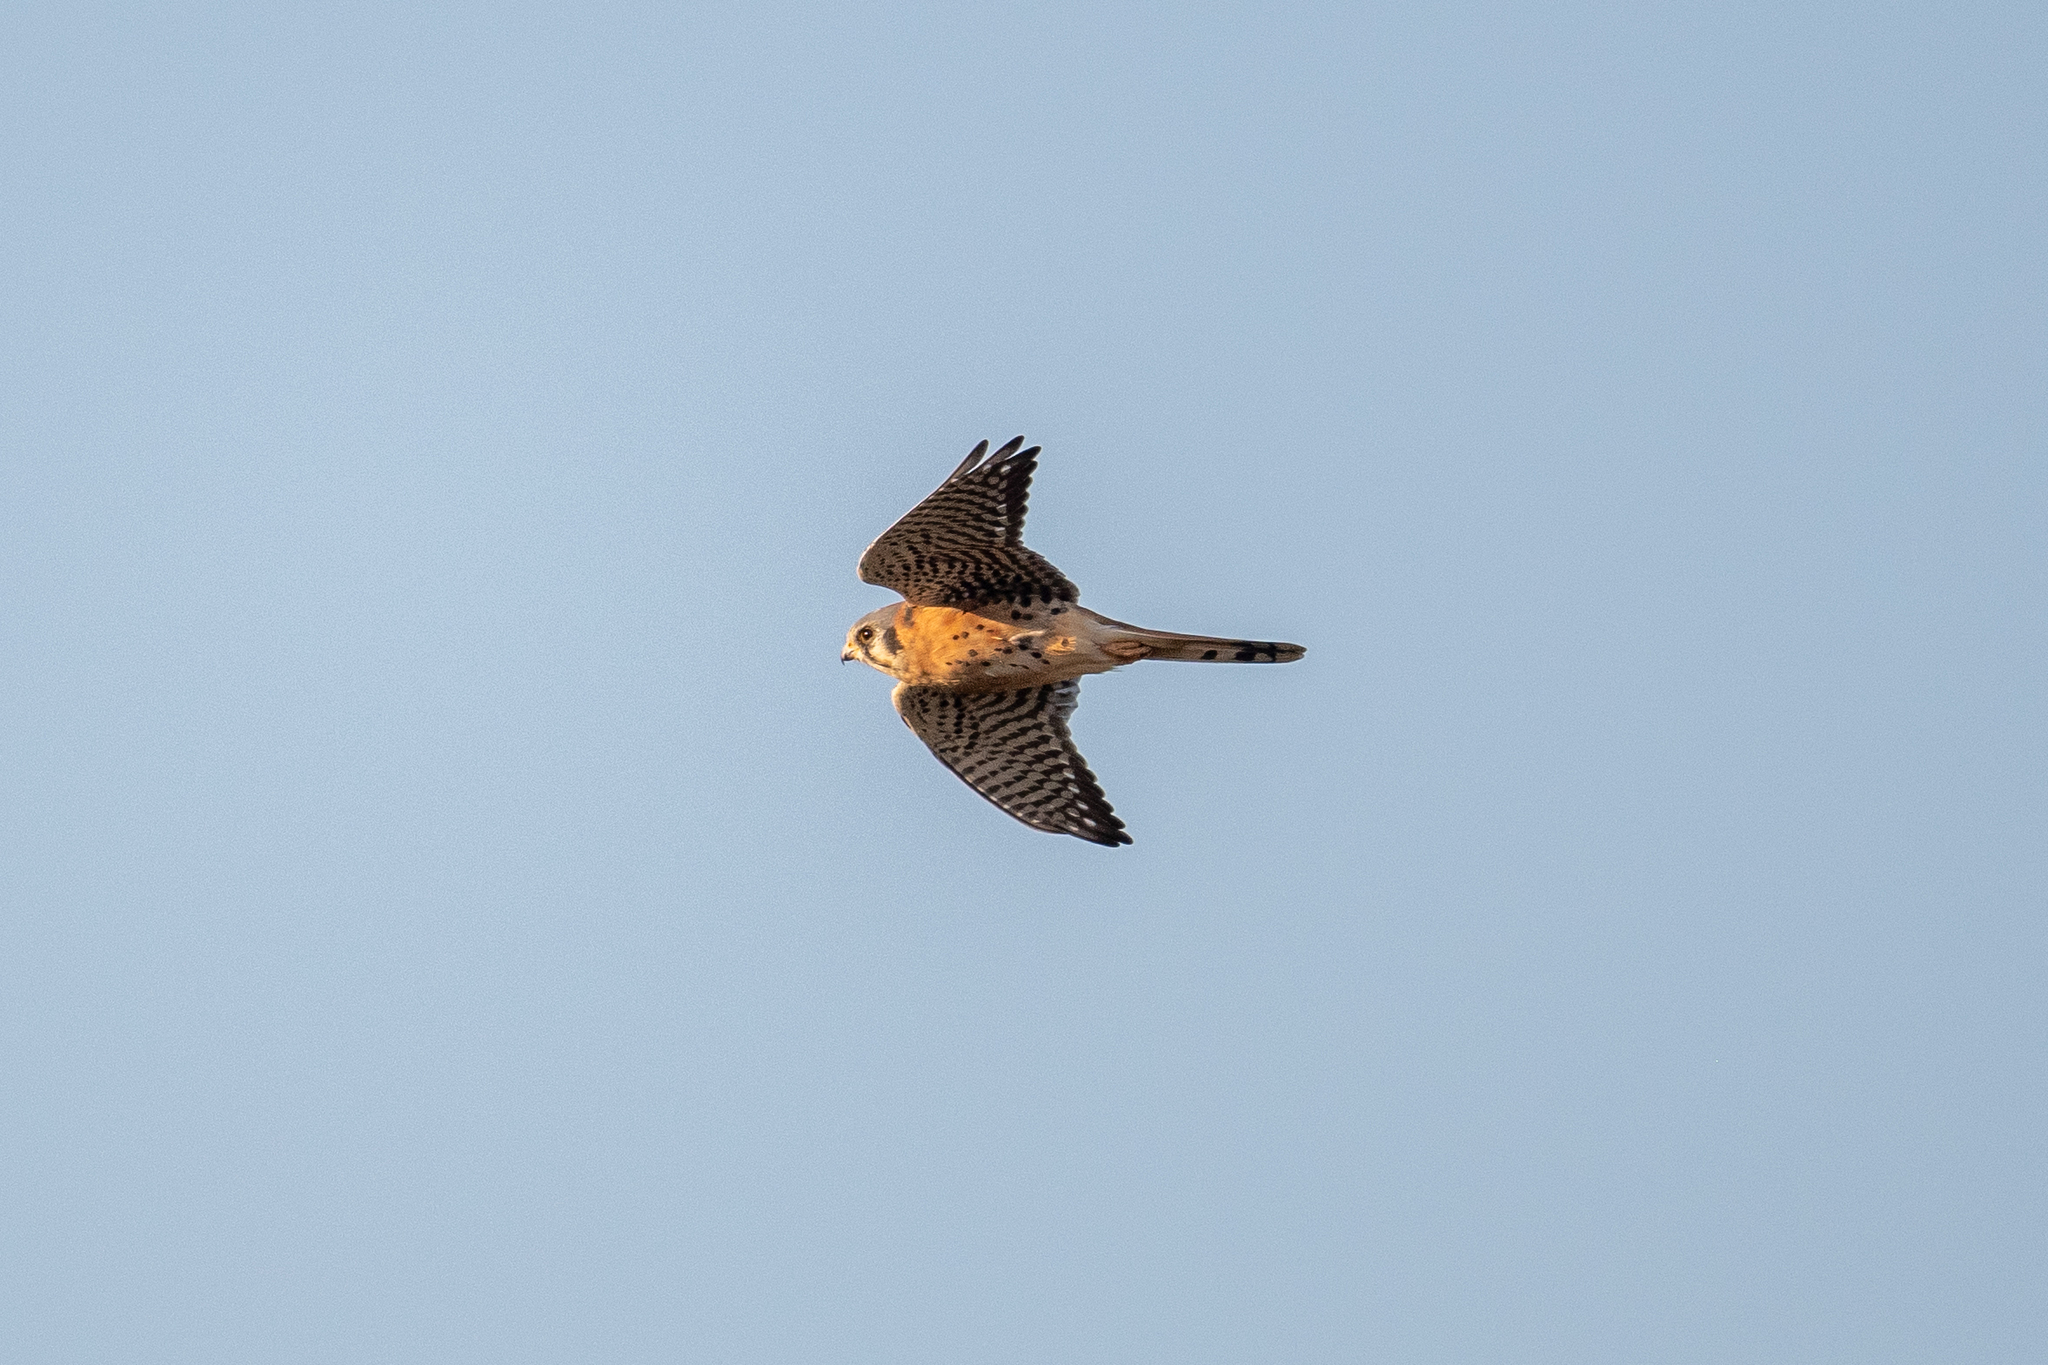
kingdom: Animalia
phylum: Chordata
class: Aves
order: Falconiformes
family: Falconidae
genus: Falco
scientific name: Falco sparverius
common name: American kestrel
